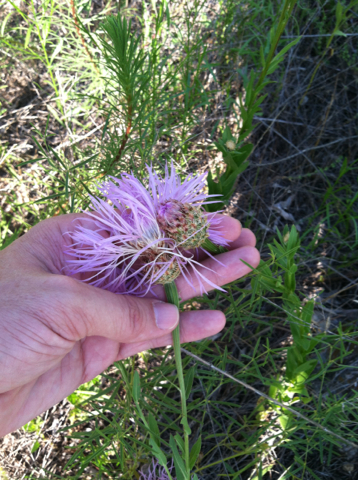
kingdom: Plantae
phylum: Tracheophyta
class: Magnoliopsida
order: Asterales
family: Asteraceae
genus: Plectocephalus
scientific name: Plectocephalus americanus
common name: American basket-flower
